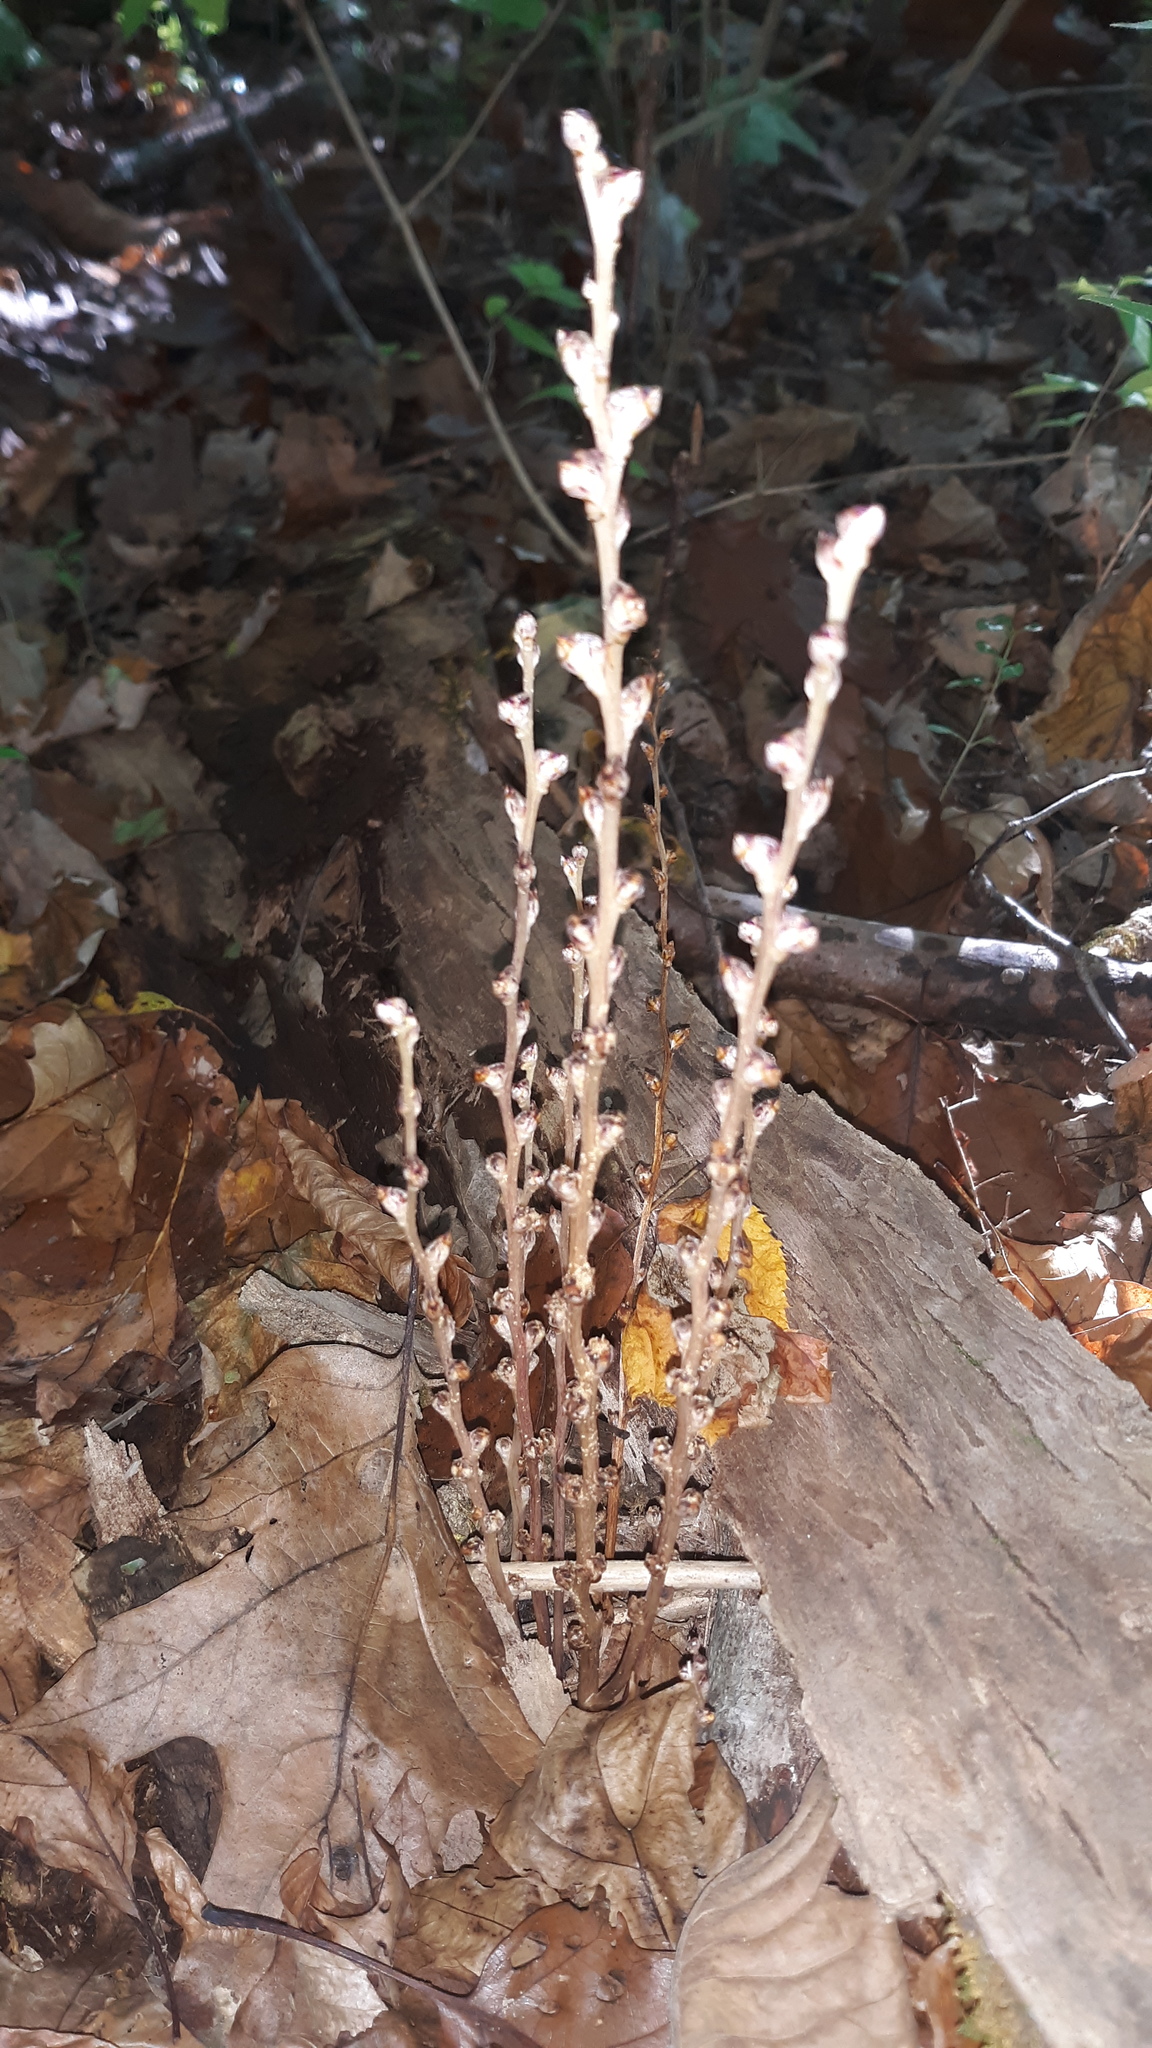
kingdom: Plantae
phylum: Tracheophyta
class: Magnoliopsida
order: Lamiales
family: Orobanchaceae
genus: Epifagus
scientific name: Epifagus virginiana
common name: Beechdrops
